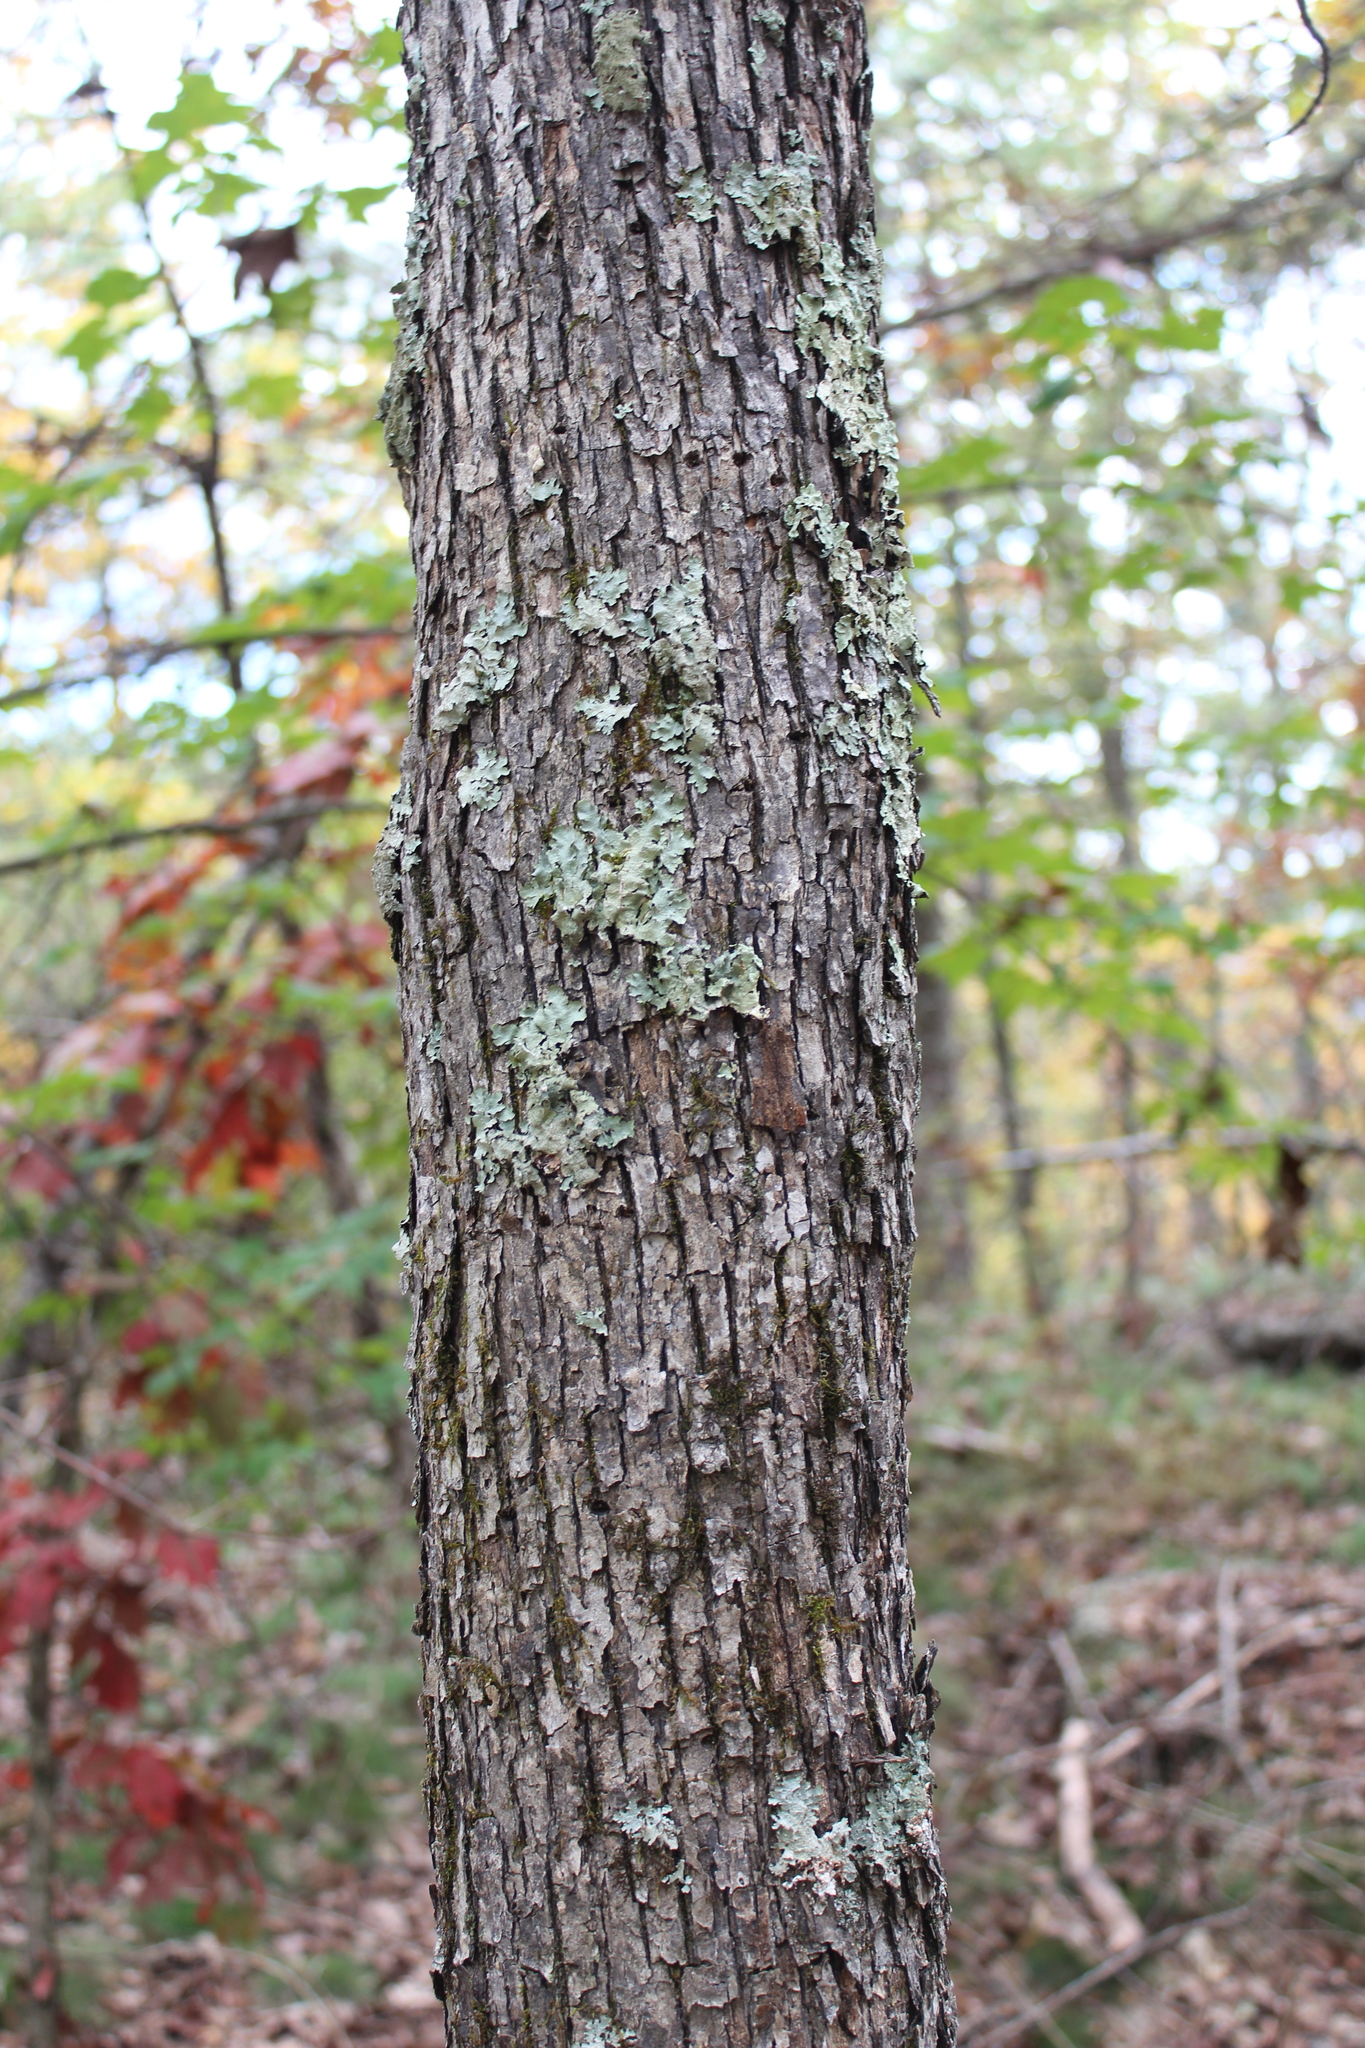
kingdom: Plantae
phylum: Tracheophyta
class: Magnoliopsida
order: Fagales
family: Betulaceae
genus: Ostrya
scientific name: Ostrya virginiana
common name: Ironwood
